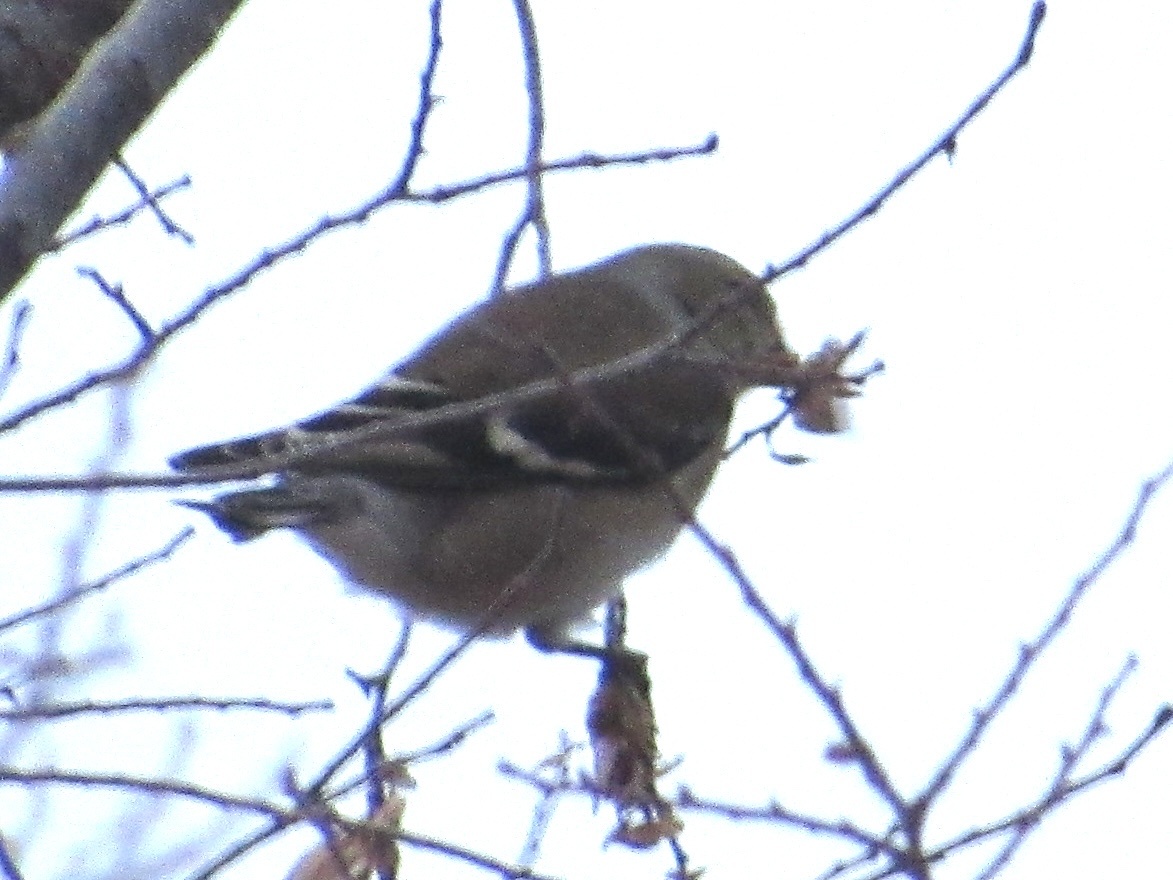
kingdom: Animalia
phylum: Chordata
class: Aves
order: Passeriformes
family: Fringillidae
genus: Spinus
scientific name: Spinus tristis
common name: American goldfinch
